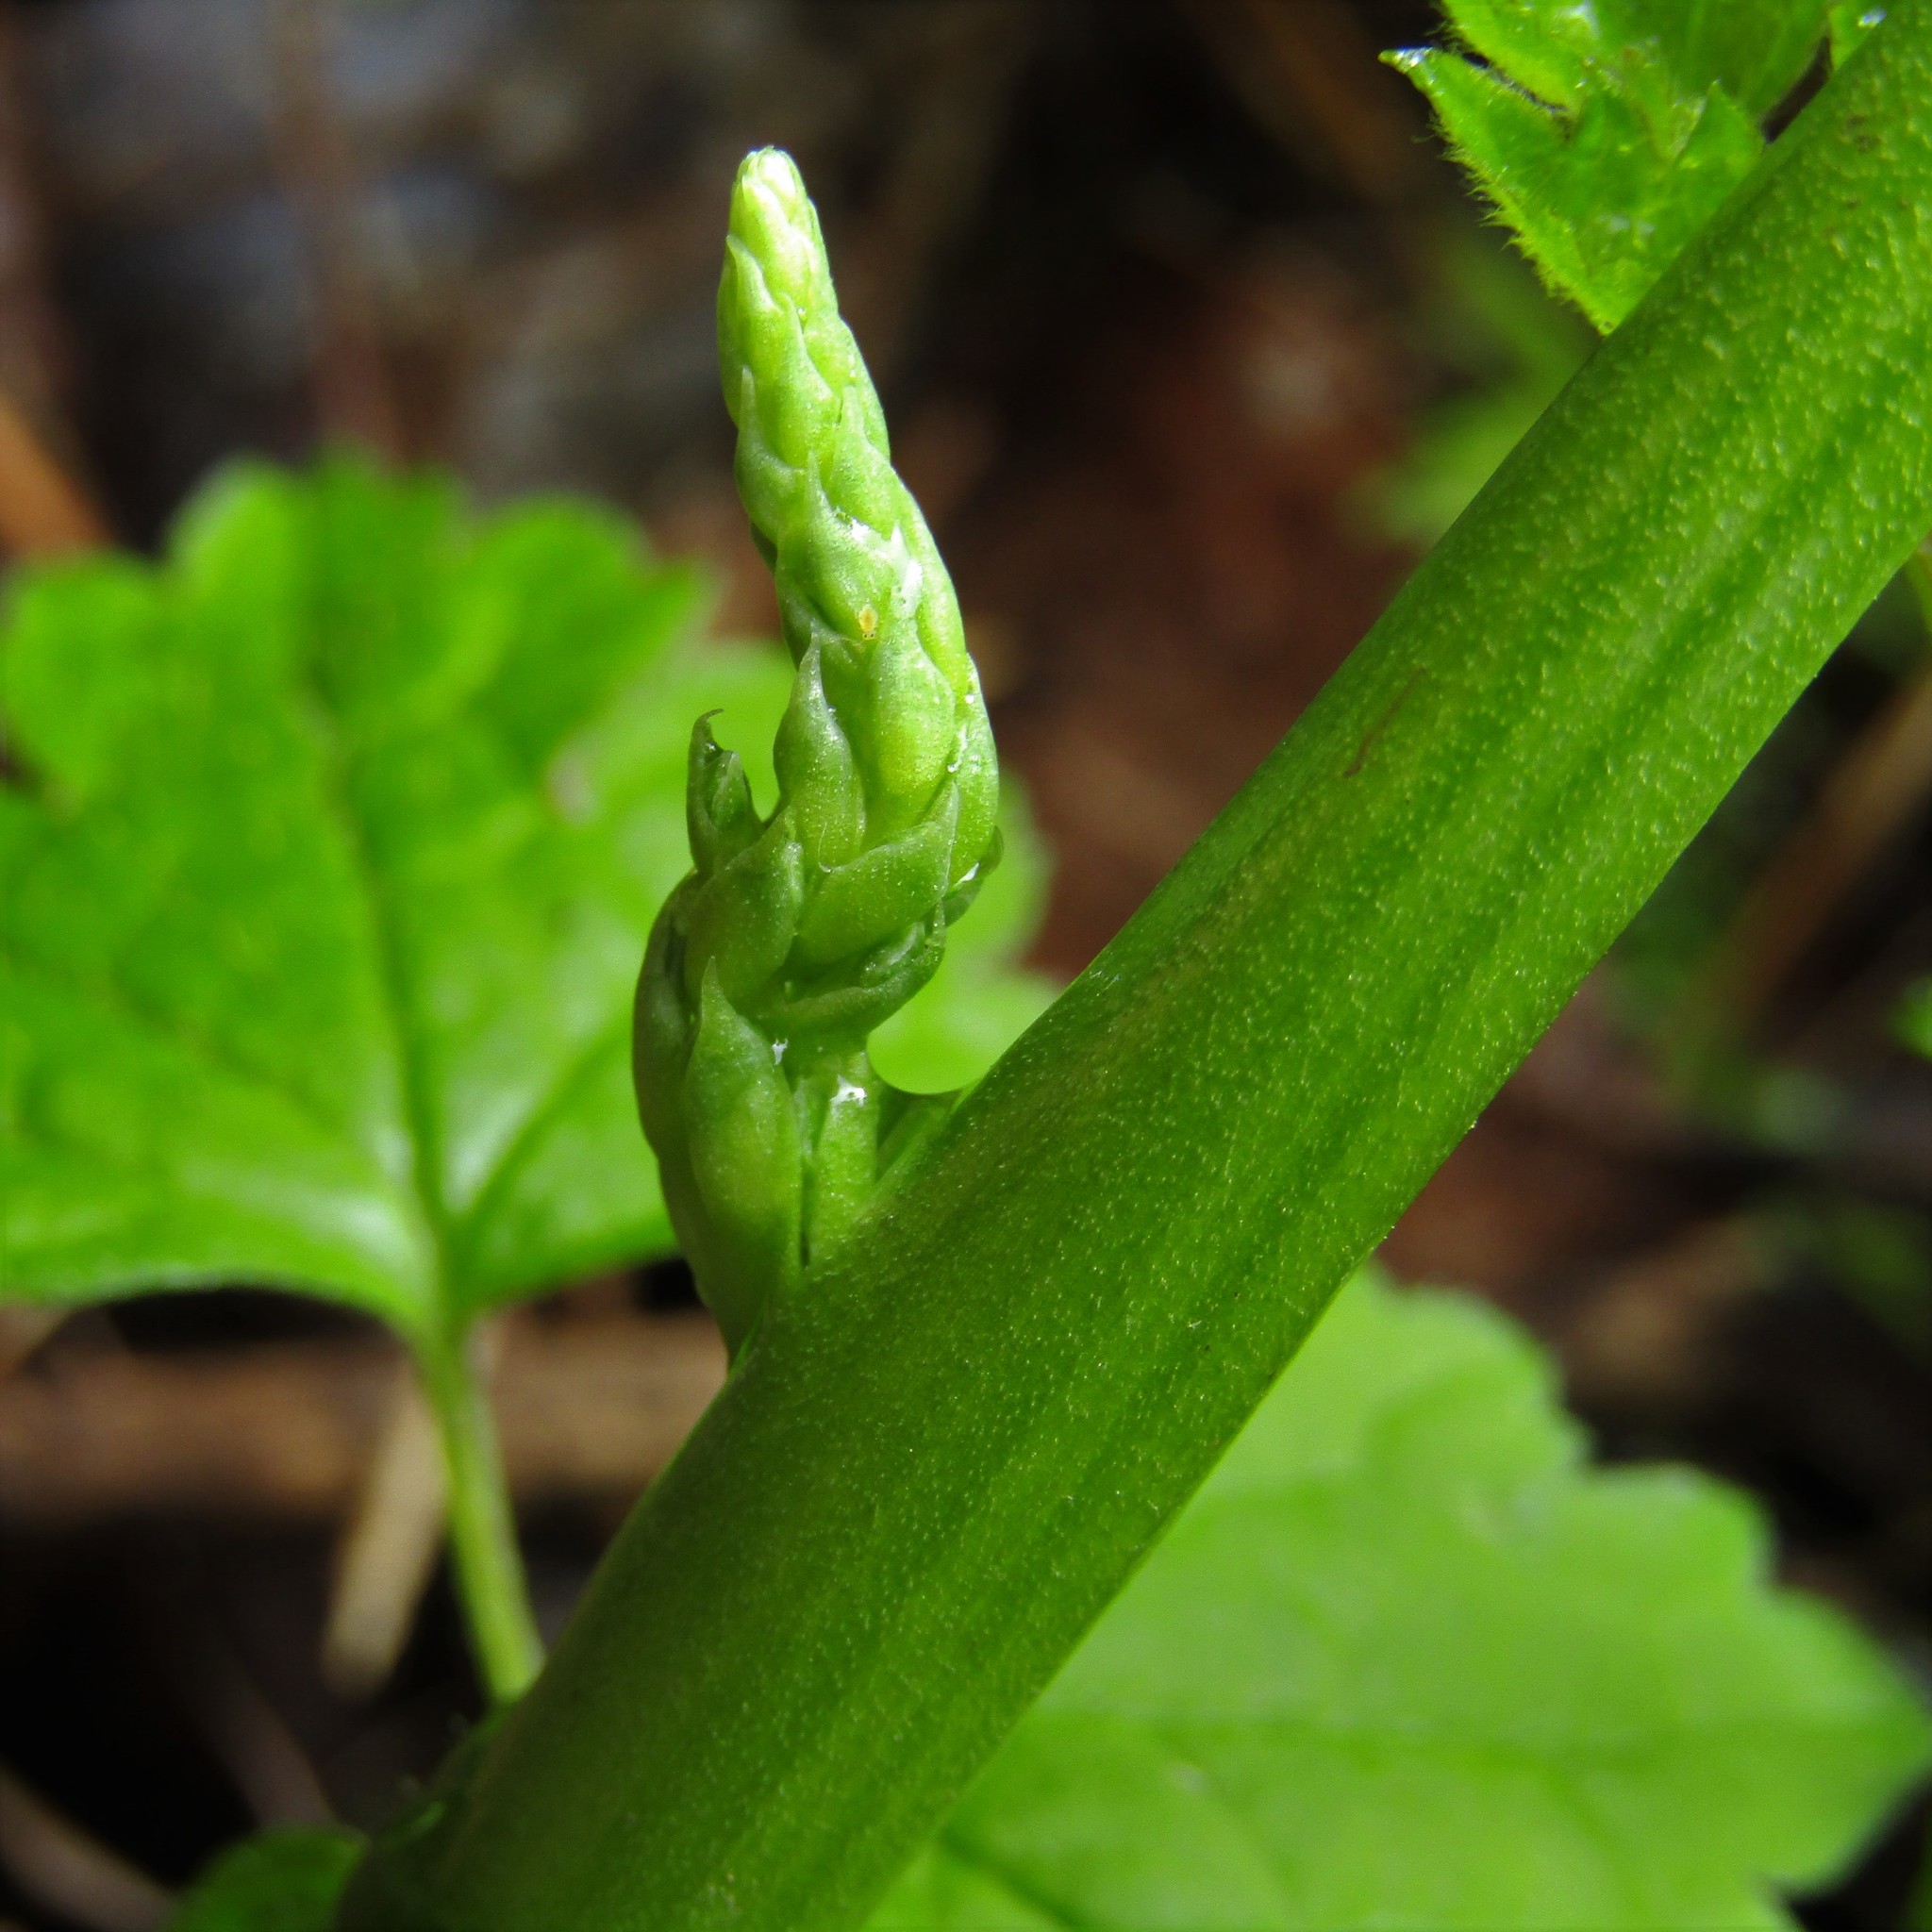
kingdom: Plantae
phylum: Tracheophyta
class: Liliopsida
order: Asparagales
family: Orchidaceae
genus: Microtis
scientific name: Microtis unifolia
